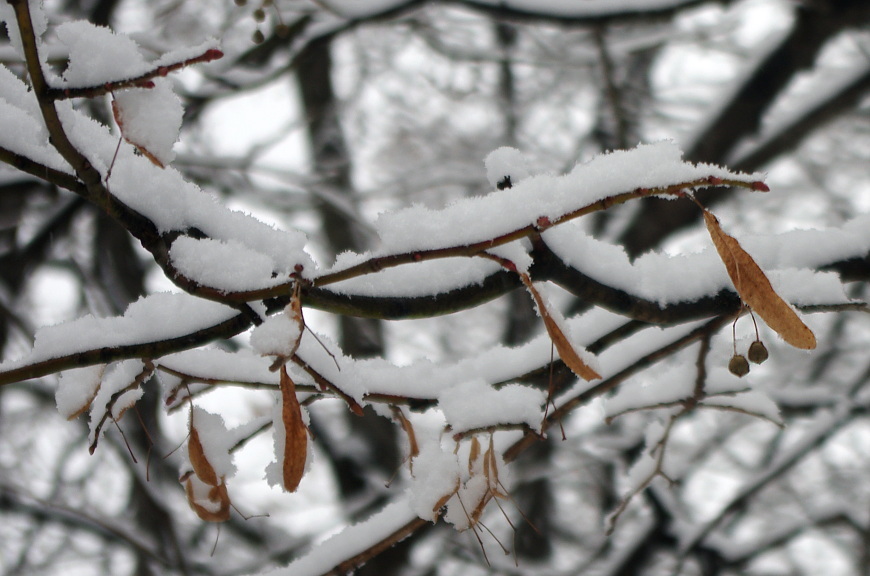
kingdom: Plantae
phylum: Tracheophyta
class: Magnoliopsida
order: Malvales
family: Malvaceae
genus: Tilia
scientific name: Tilia cordata
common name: Small-leaved lime
